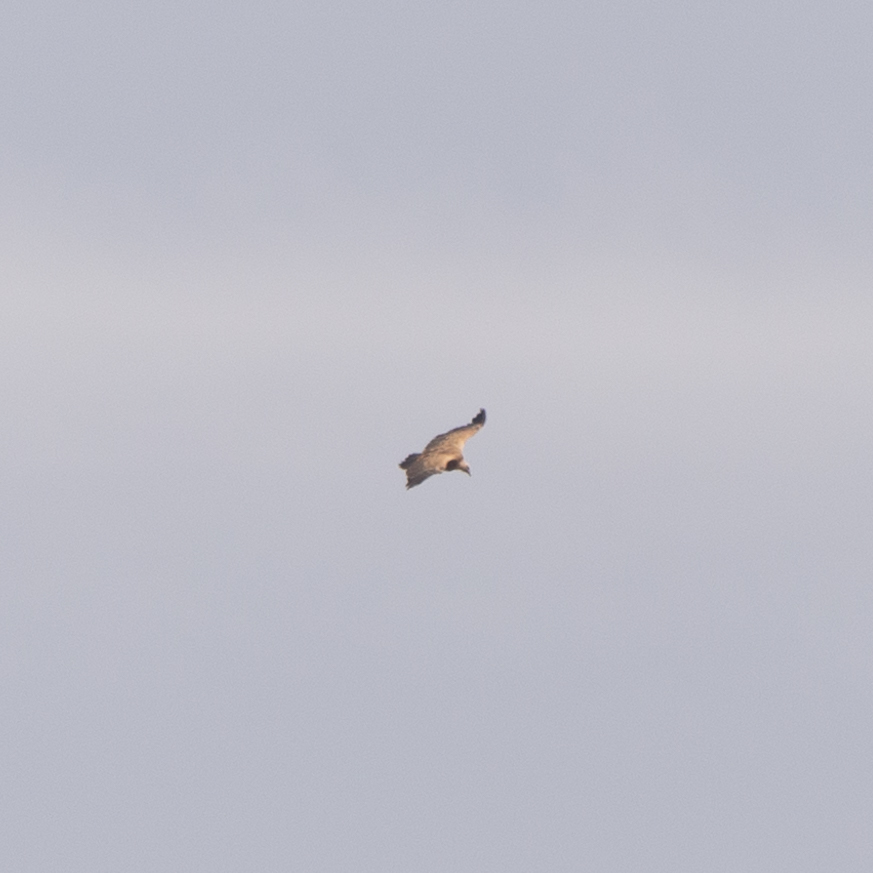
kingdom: Animalia
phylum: Chordata
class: Aves
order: Accipitriformes
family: Accipitridae
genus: Gyps
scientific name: Gyps fulvus
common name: Griffon vulture
